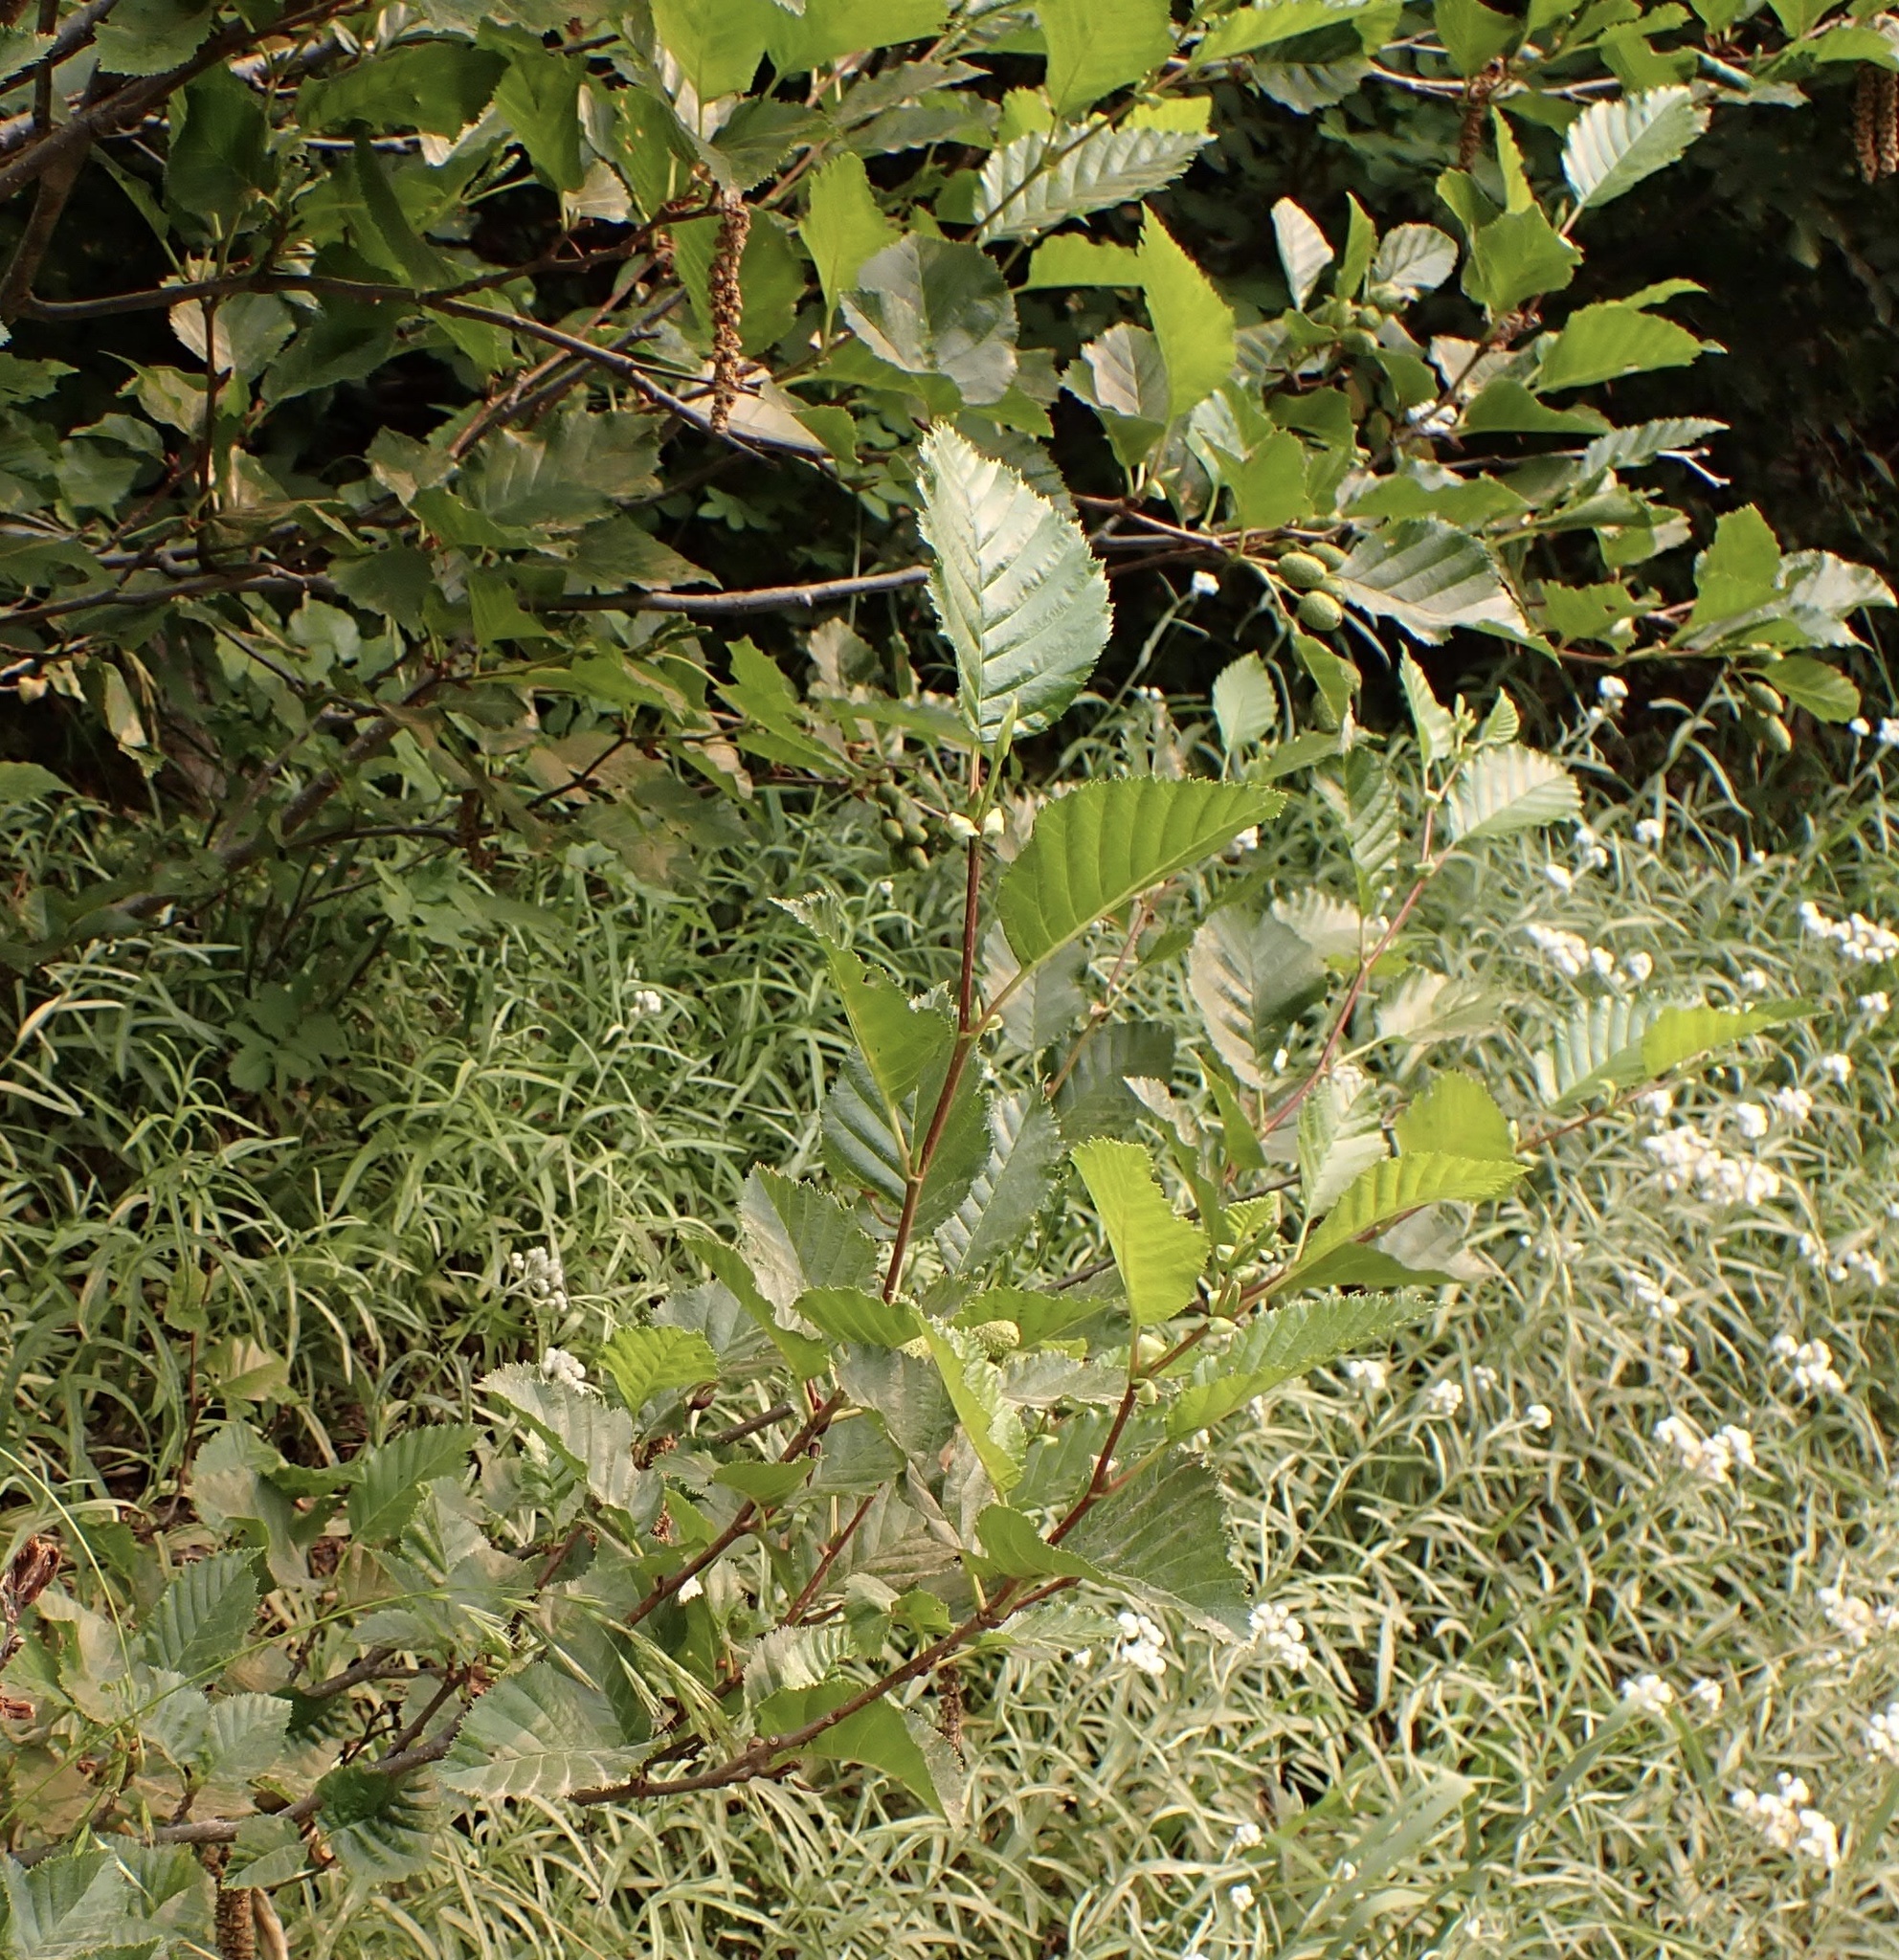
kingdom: Plantae
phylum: Tracheophyta
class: Magnoliopsida
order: Fagales
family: Betulaceae
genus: Alnus
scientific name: Alnus rubra
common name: Red alder
